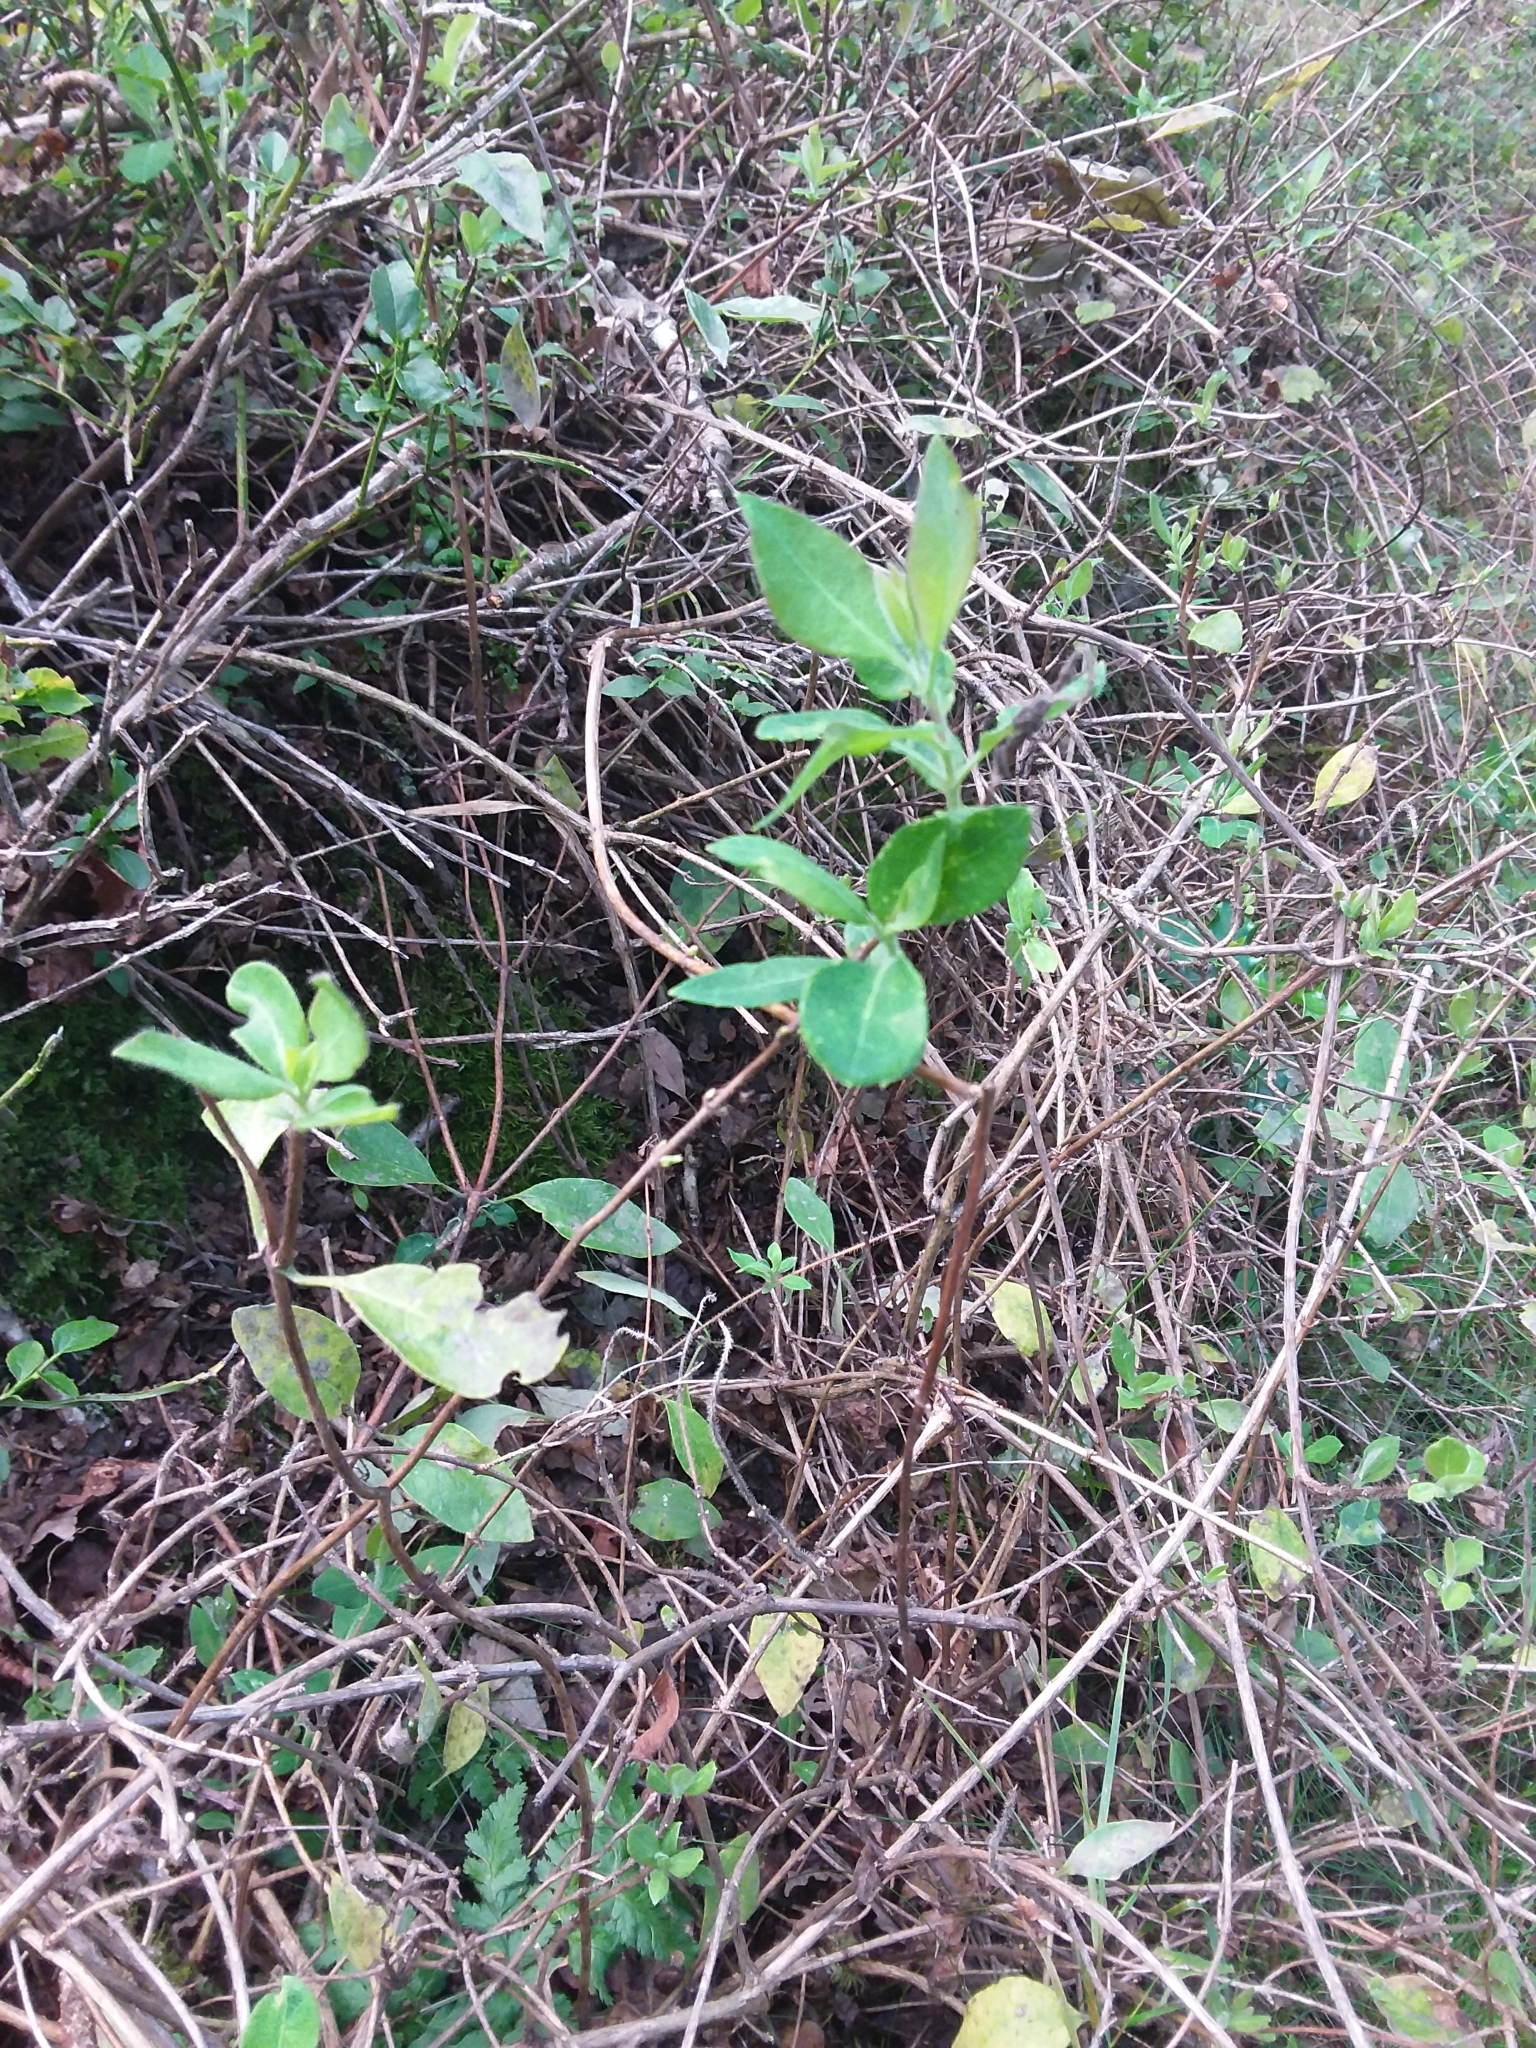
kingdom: Plantae
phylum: Tracheophyta
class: Magnoliopsida
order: Dipsacales
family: Caprifoliaceae
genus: Lonicera
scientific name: Lonicera periclymenum
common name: European honeysuckle
